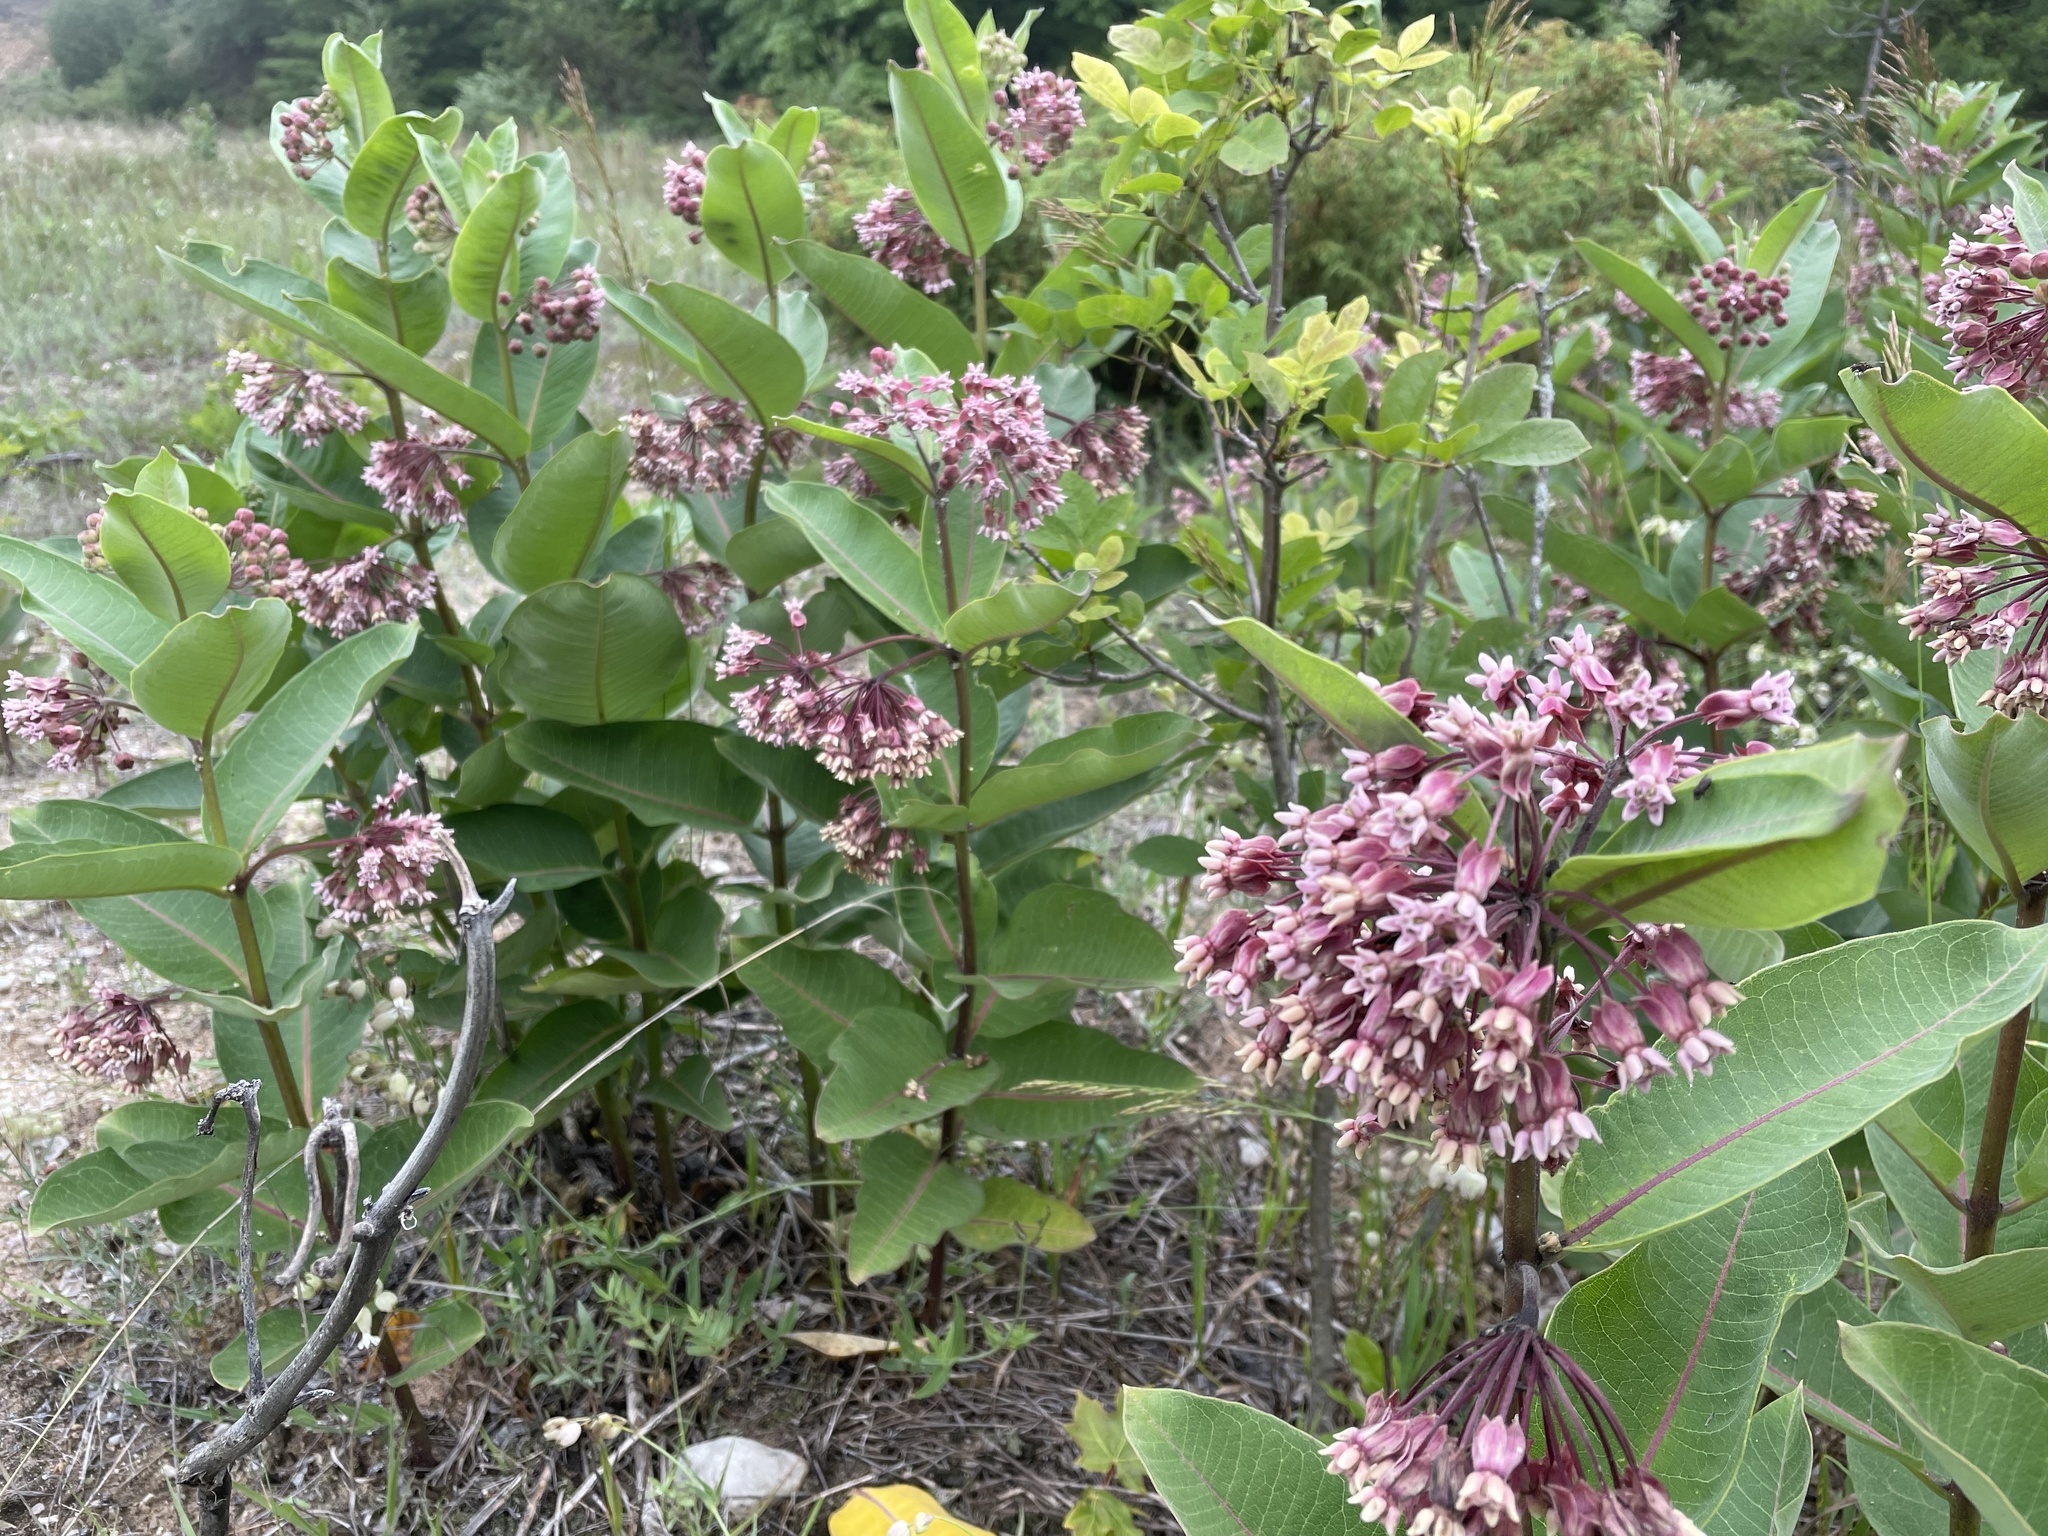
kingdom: Plantae
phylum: Tracheophyta
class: Magnoliopsida
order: Gentianales
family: Apocynaceae
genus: Asclepias
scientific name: Asclepias syriaca
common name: Common milkweed
